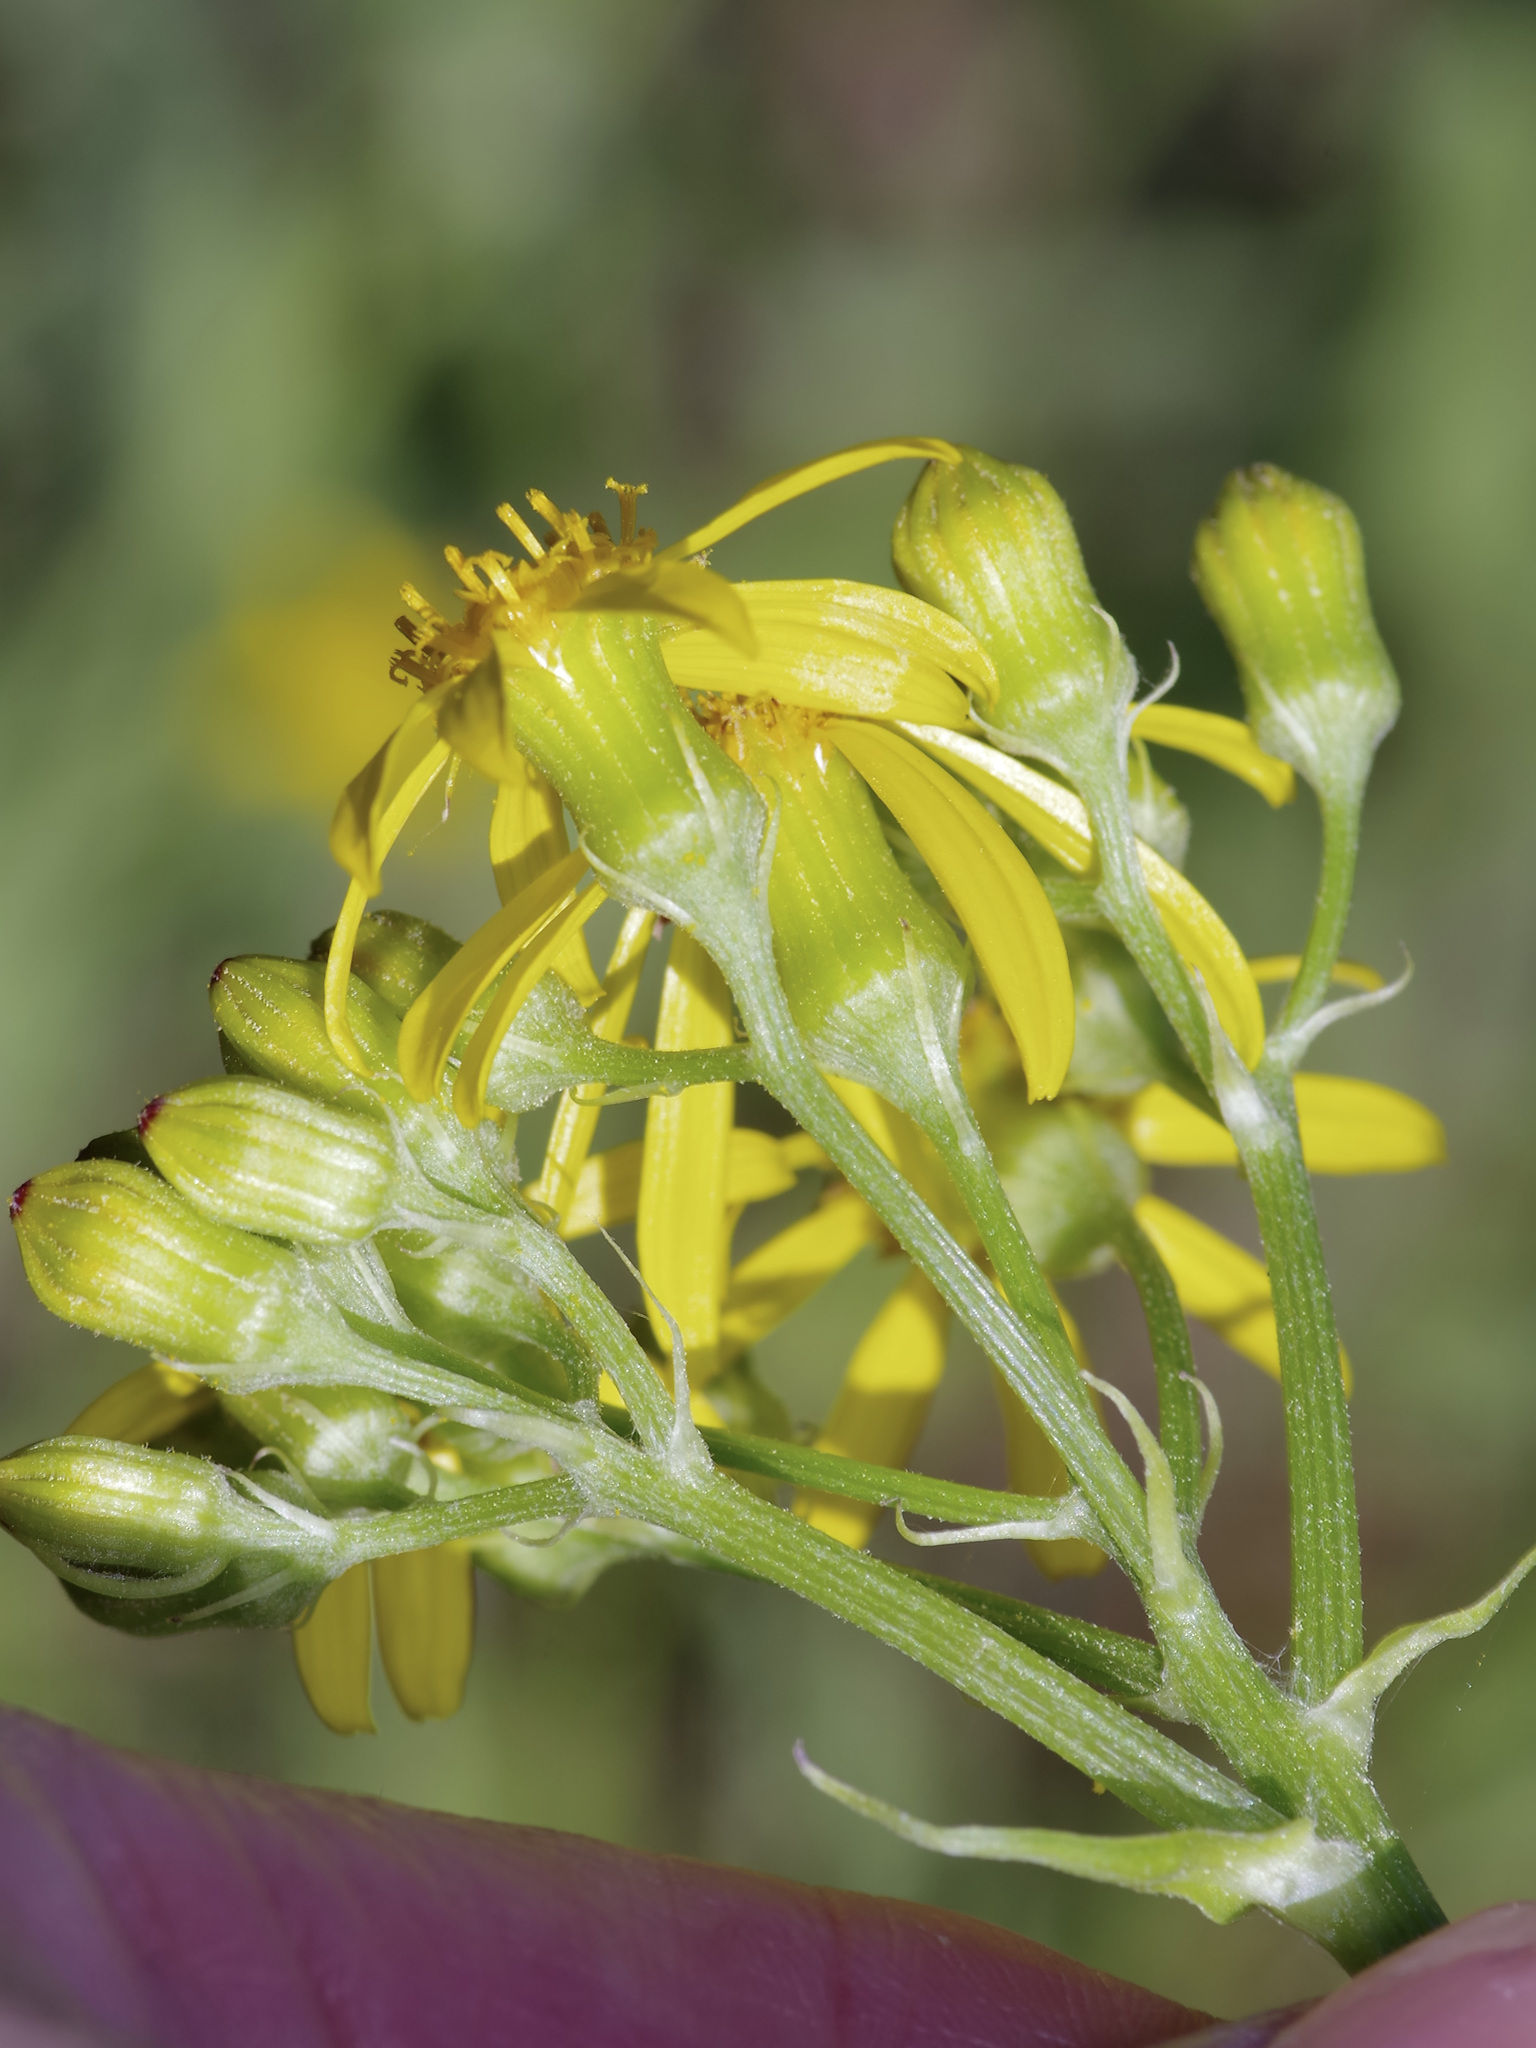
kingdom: Plantae
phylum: Tracheophyta
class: Magnoliopsida
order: Asterales
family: Asteraceae
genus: Senecio
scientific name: Senecio ampullaceus
